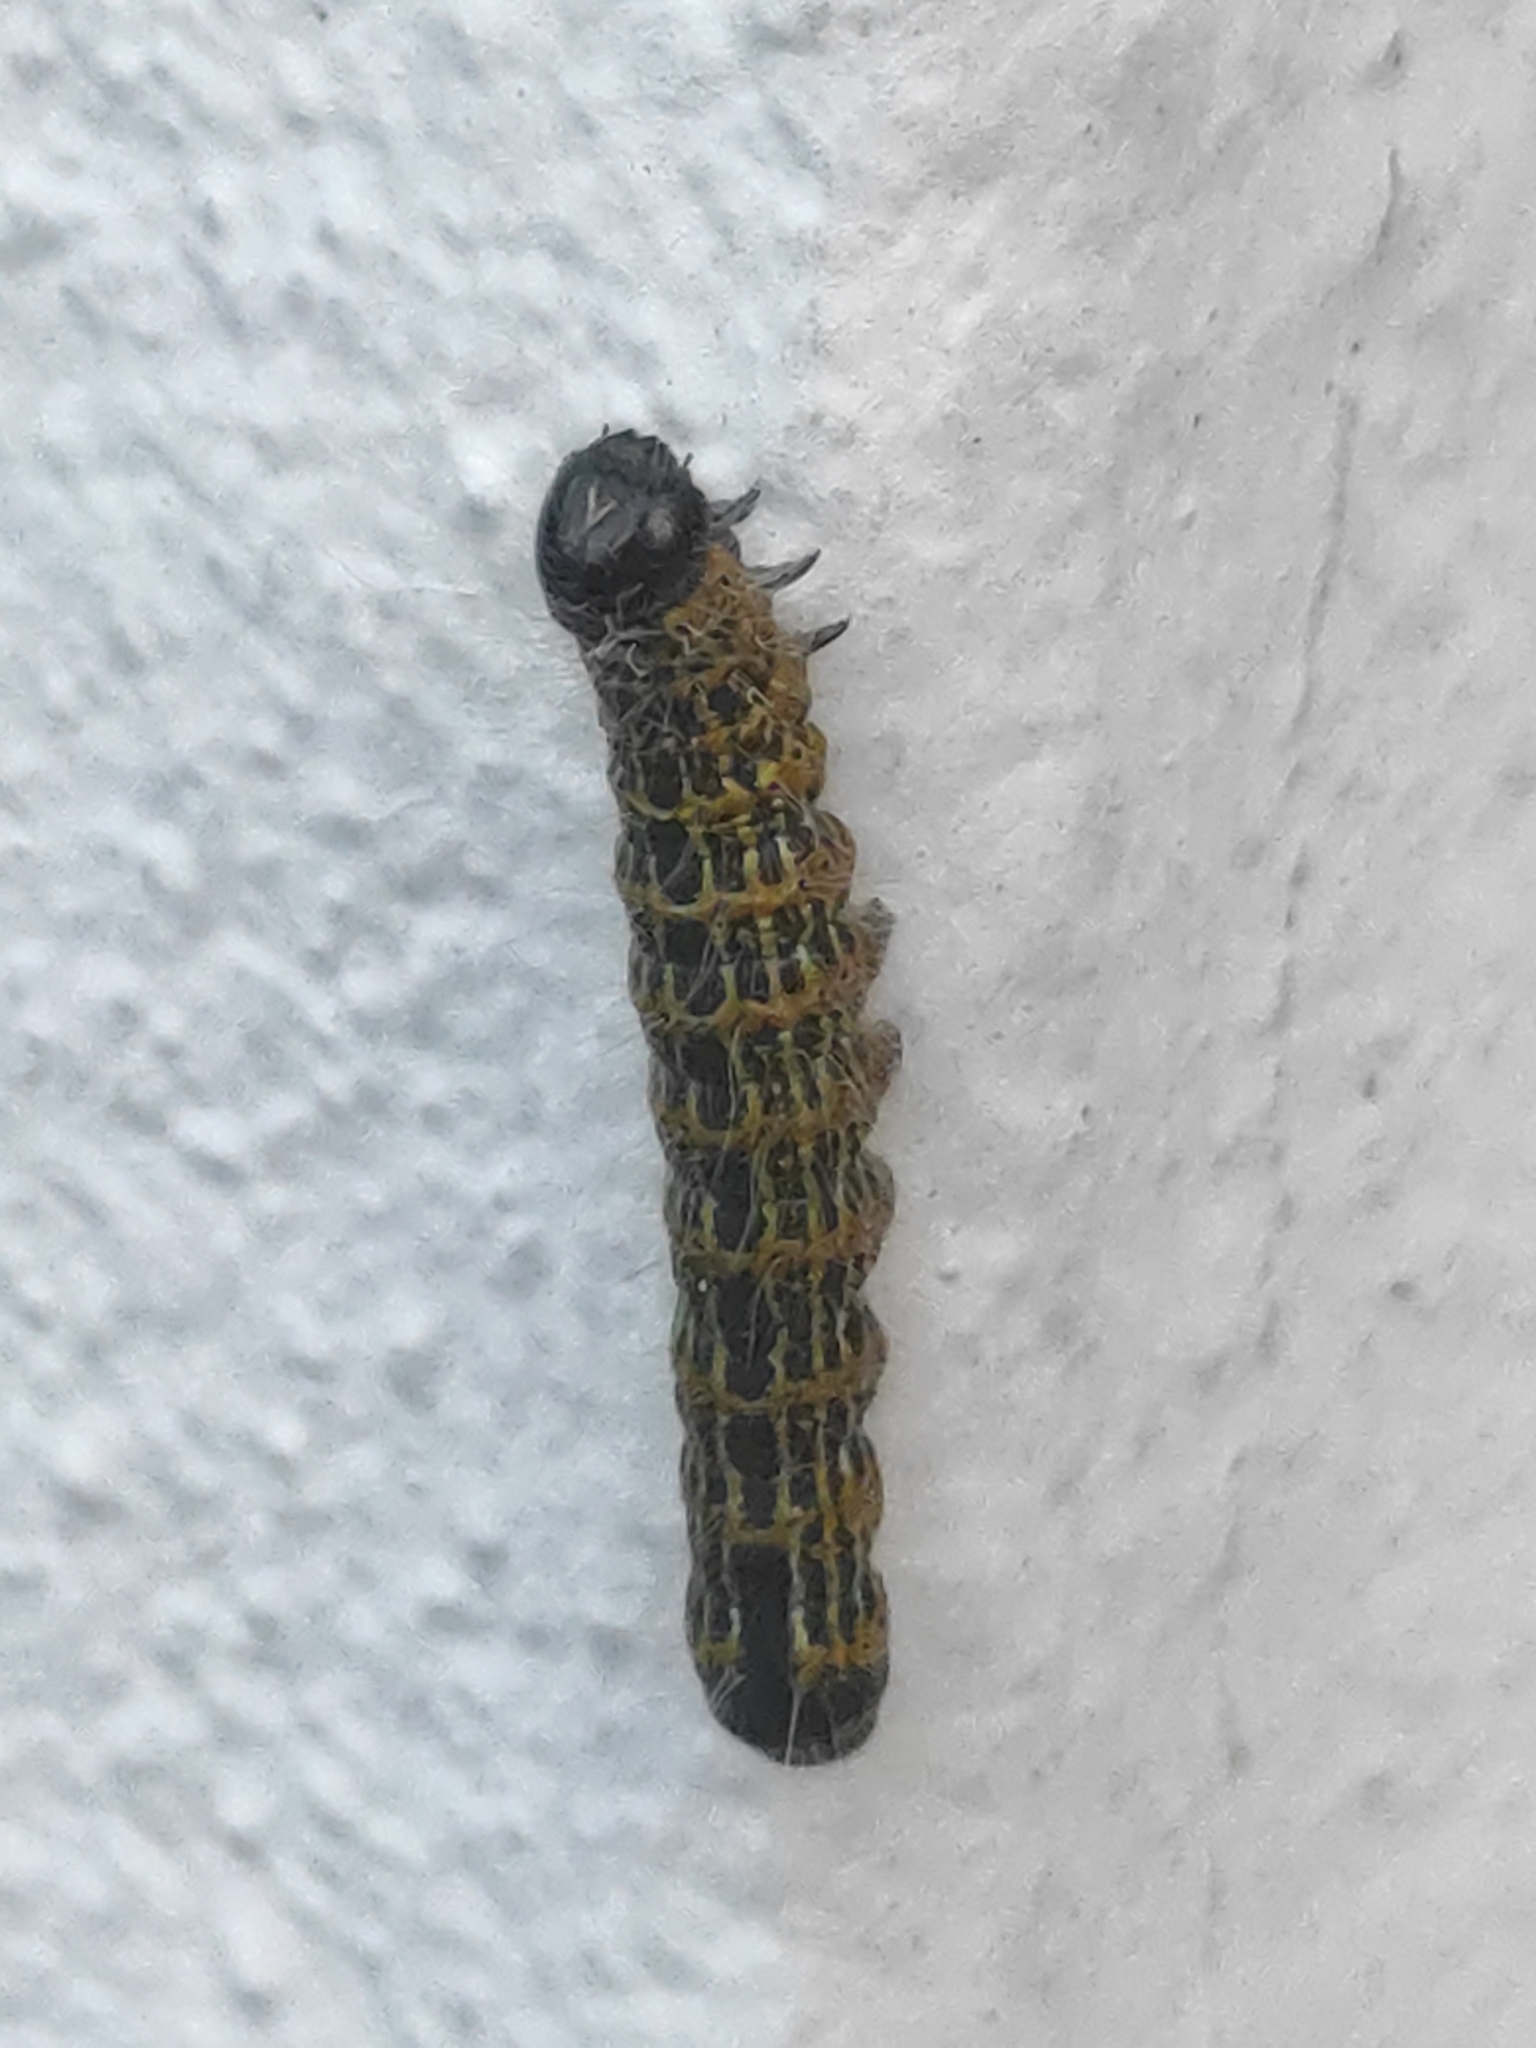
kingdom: Animalia
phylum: Arthropoda
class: Insecta
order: Lepidoptera
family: Notodontidae
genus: Phalera
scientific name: Phalera bucephala
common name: Buff-tip
